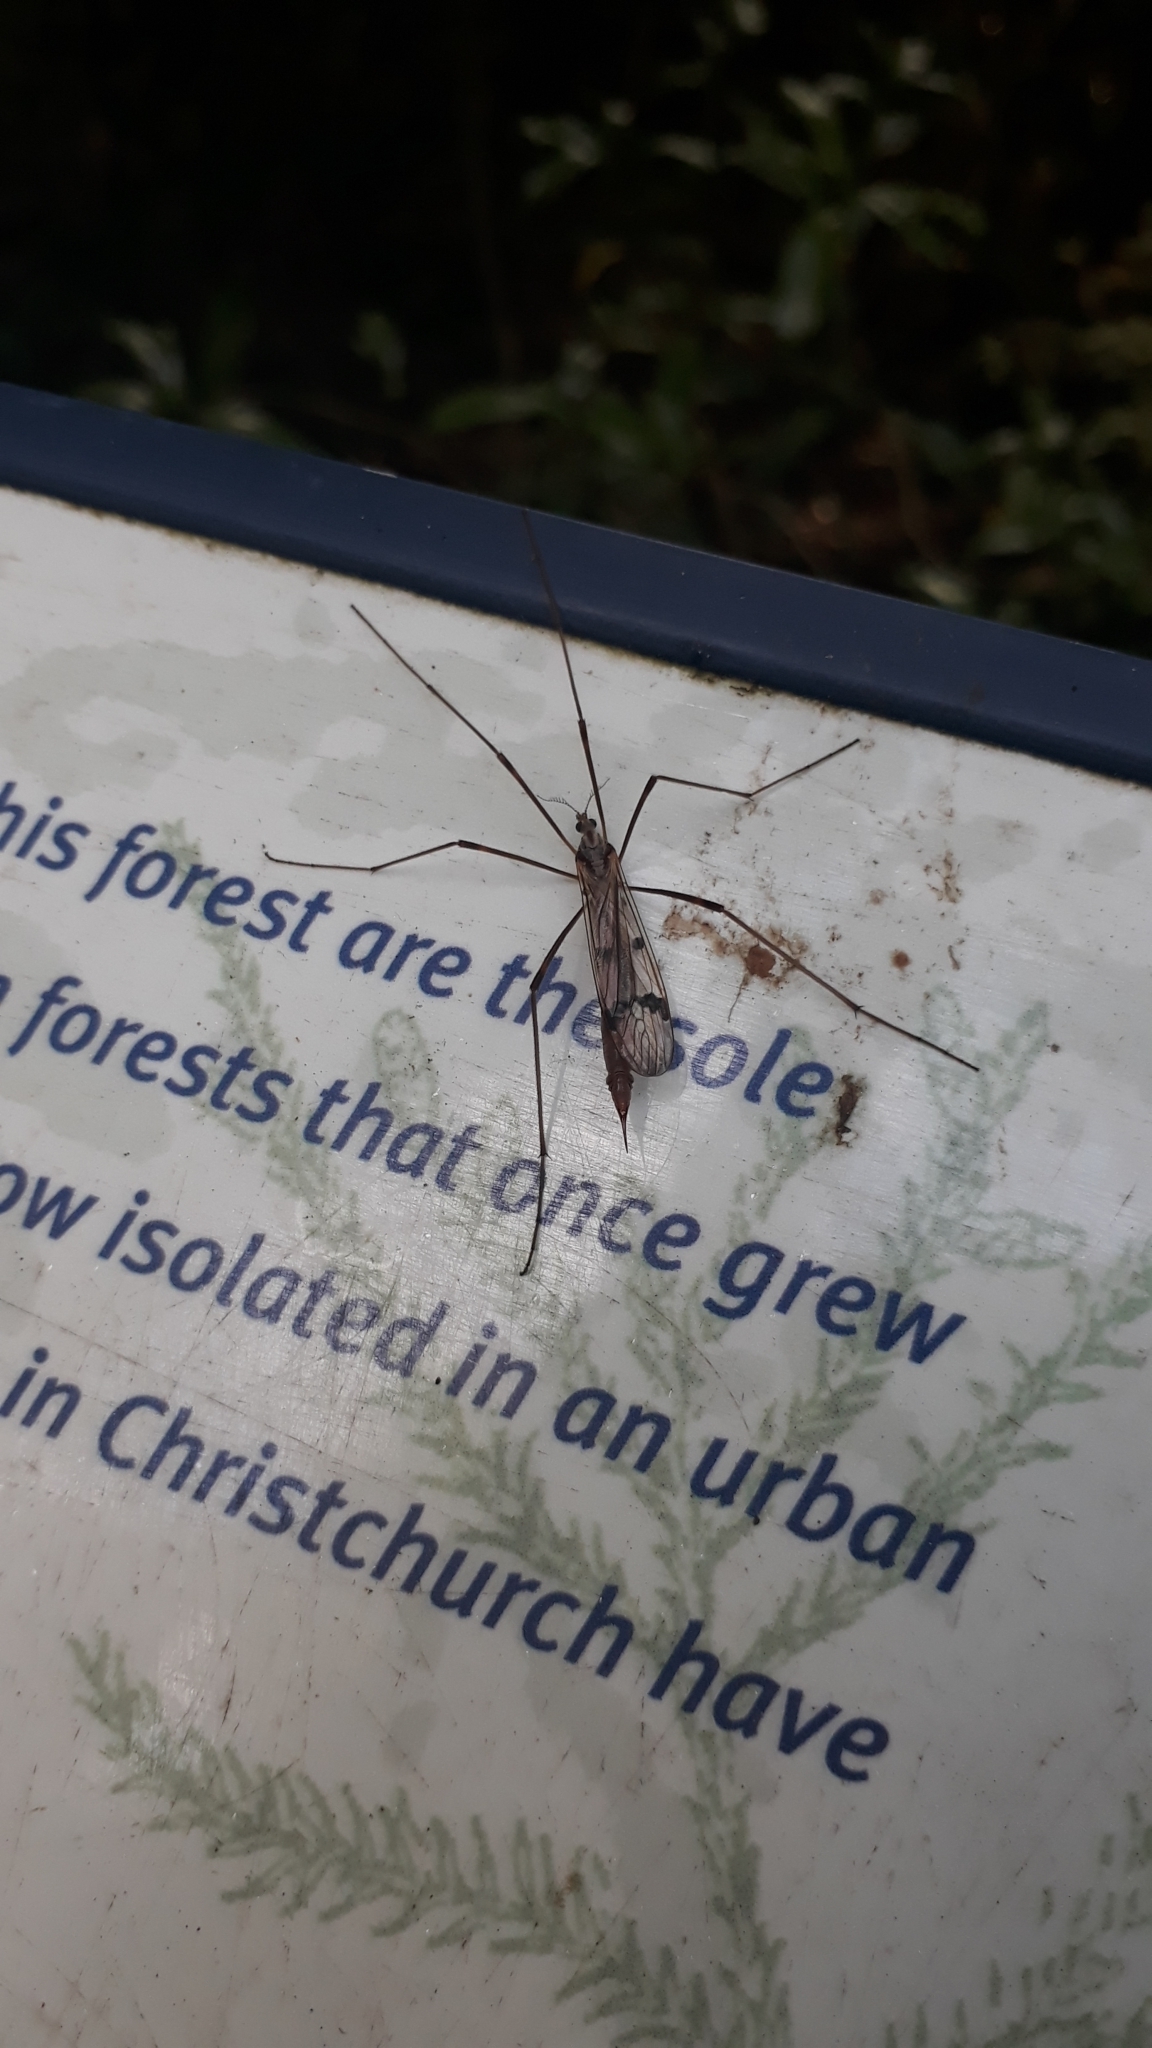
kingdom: Animalia
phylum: Arthropoda
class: Insecta
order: Diptera
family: Limoniidae
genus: Gynoplistia
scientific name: Gynoplistia sackeni
